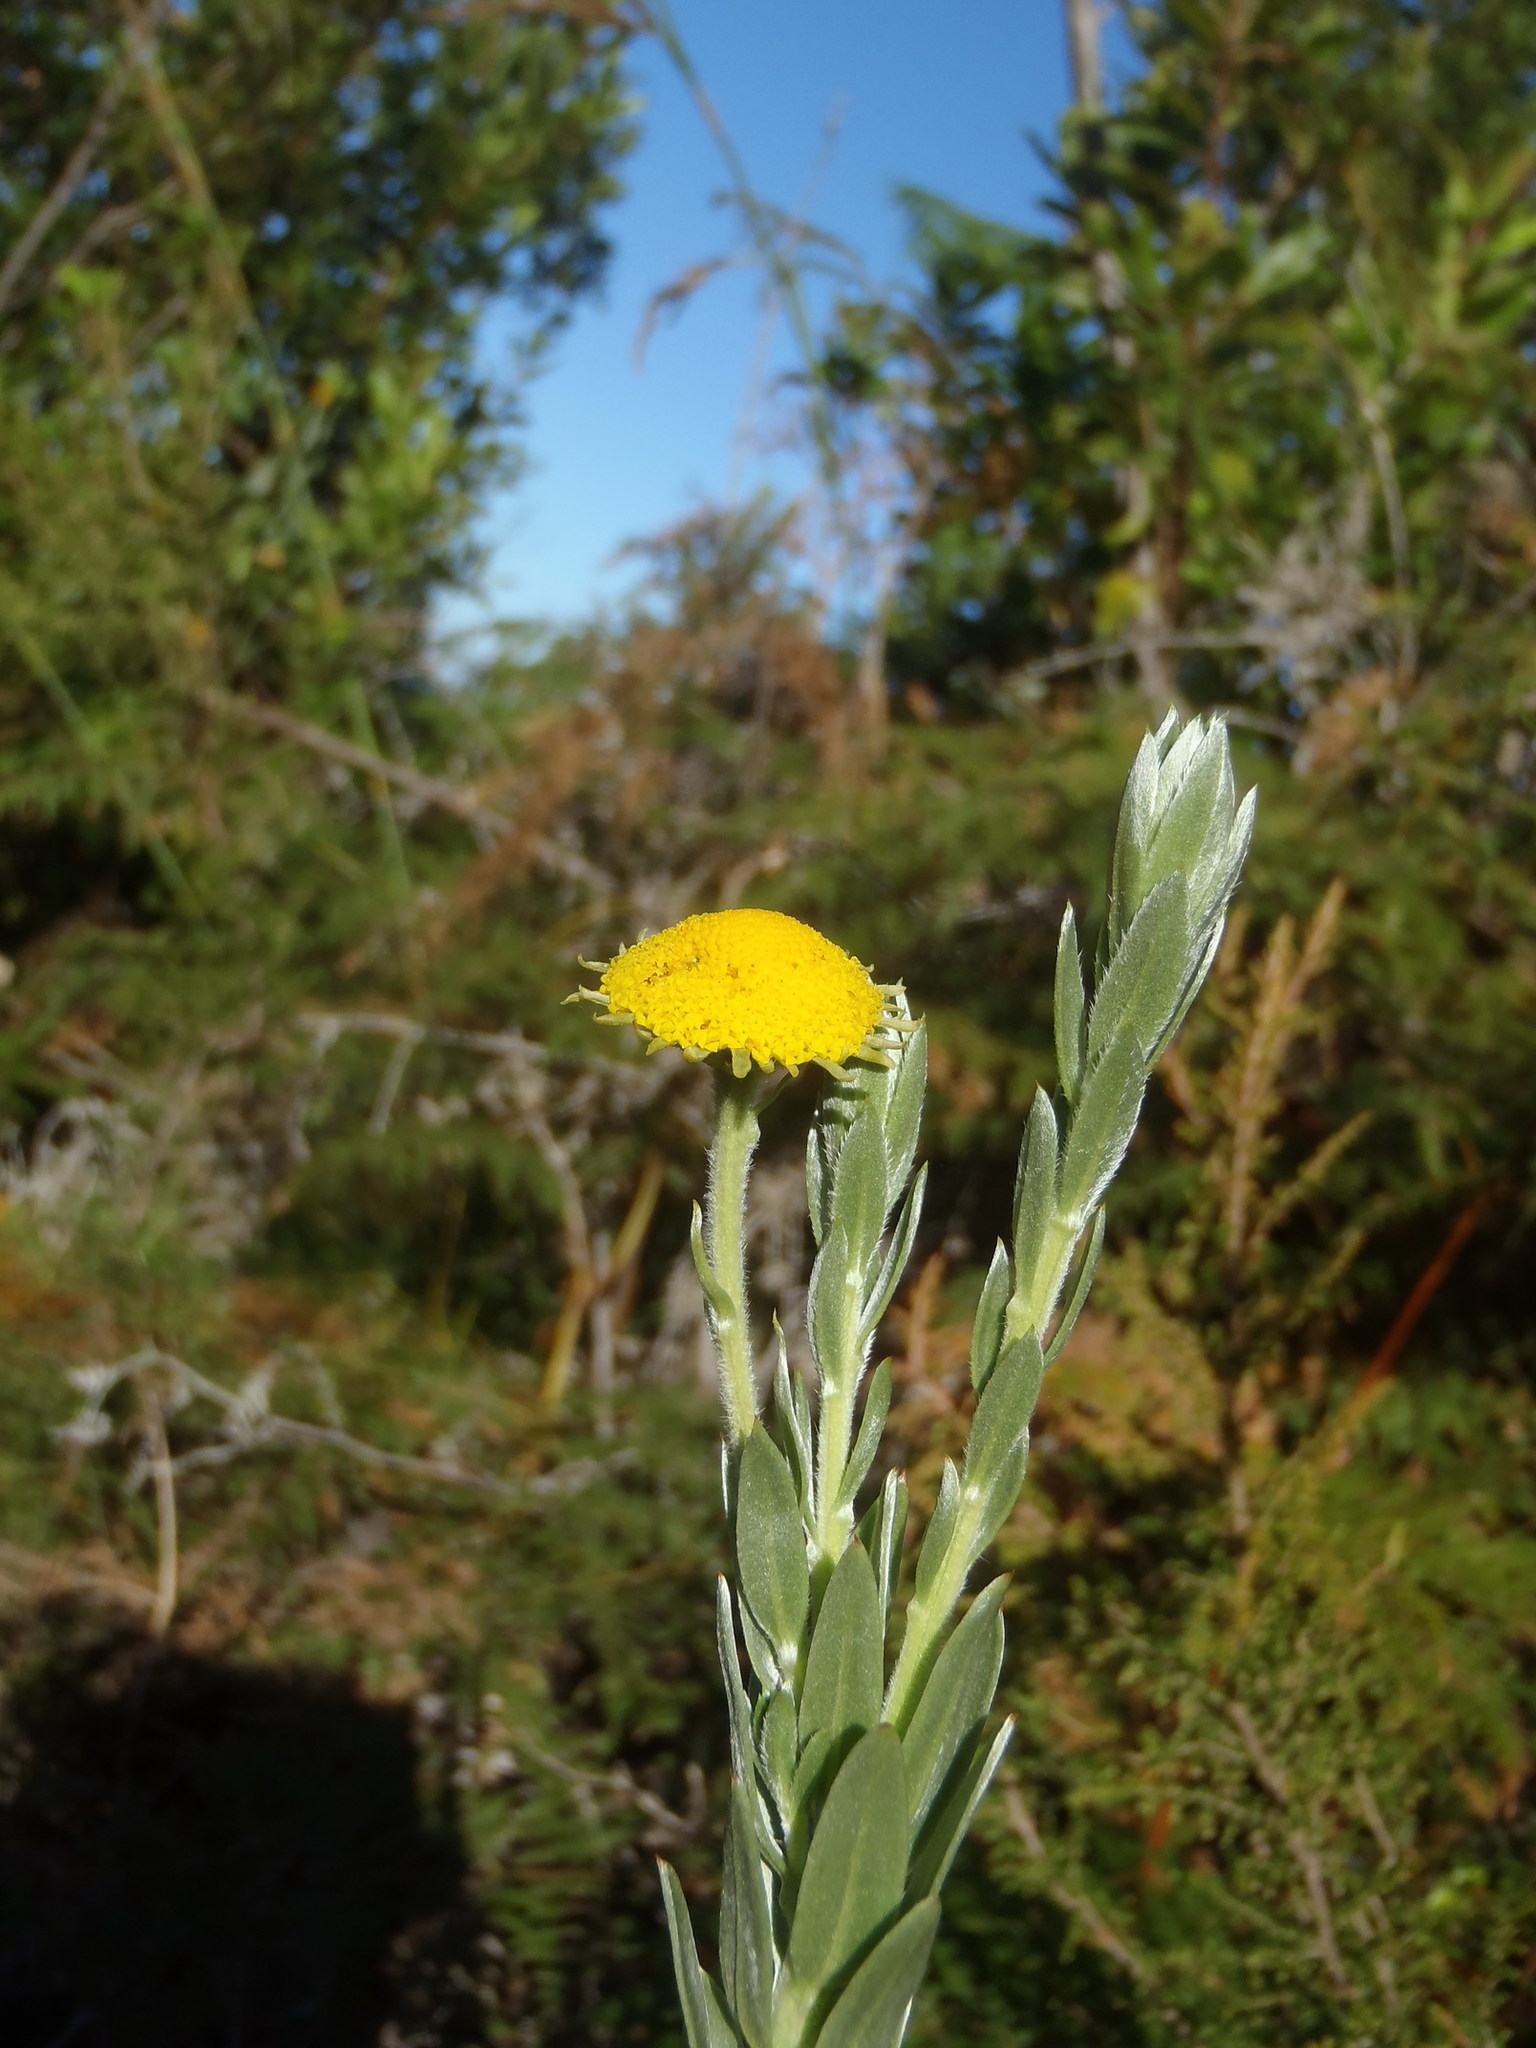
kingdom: Plantae
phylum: Tracheophyta
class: Magnoliopsida
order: Asterales
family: Asteraceae
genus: Schistostephium
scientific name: Schistostephium umbellatum
